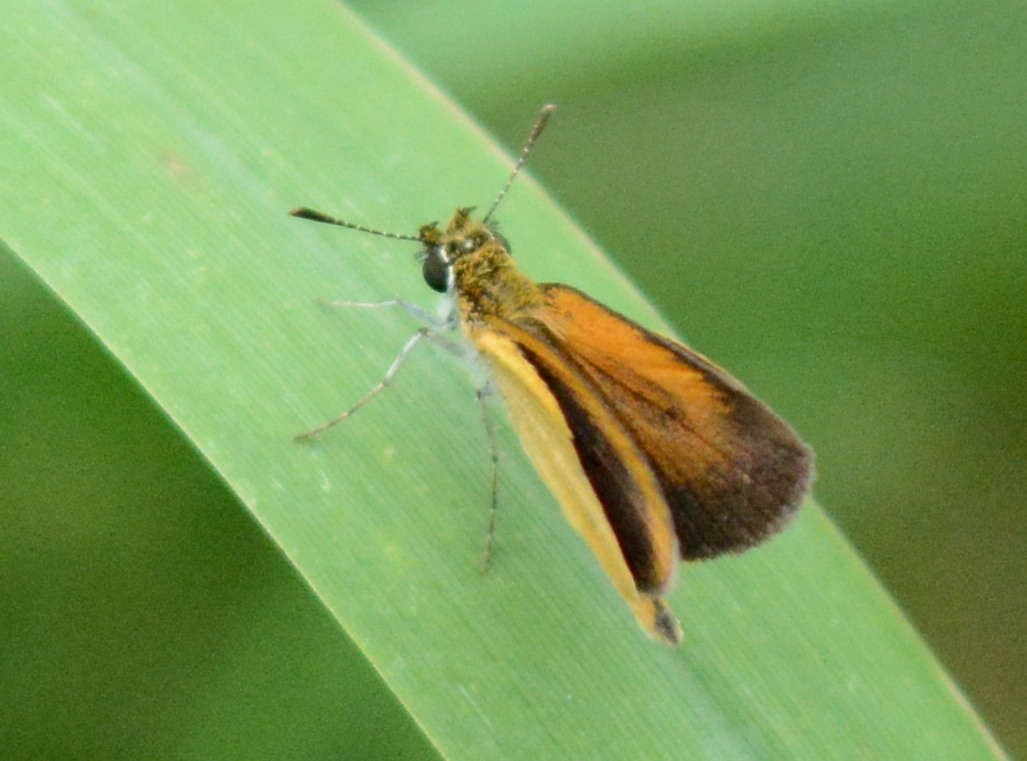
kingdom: Animalia
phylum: Arthropoda
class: Insecta
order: Lepidoptera
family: Hesperiidae
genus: Ancyloxypha
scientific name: Ancyloxypha numitor
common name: Least skipper
